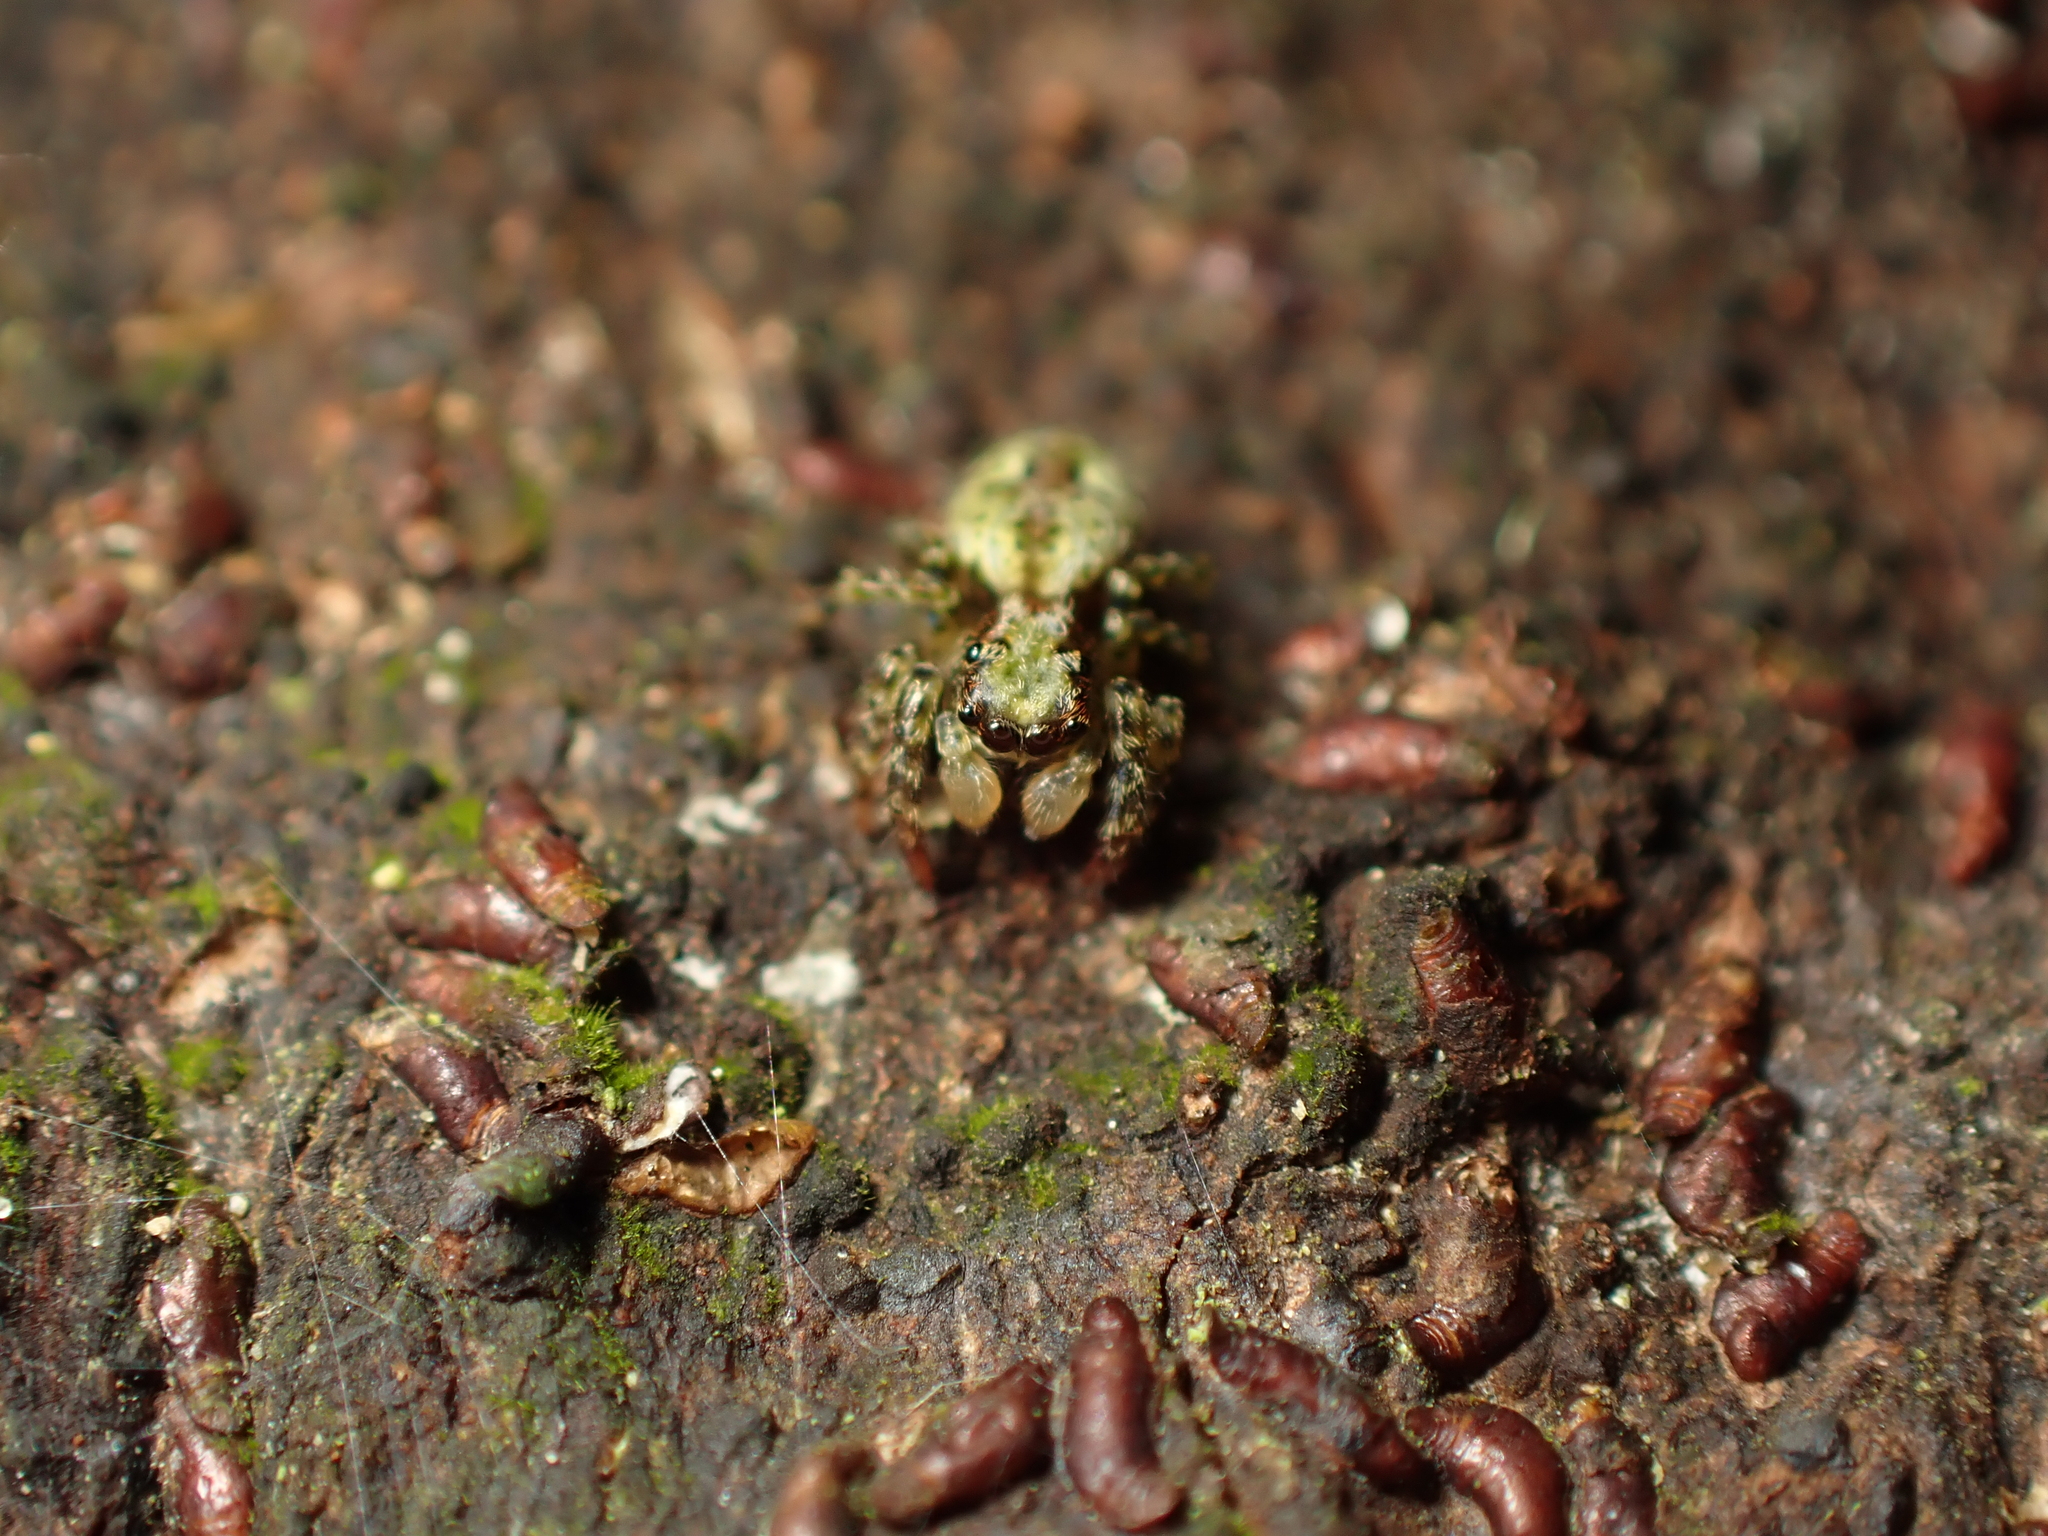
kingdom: Animalia
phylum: Arthropoda
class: Arachnida
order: Araneae
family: Salticidae
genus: Hinewaia
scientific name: Hinewaia embolica
